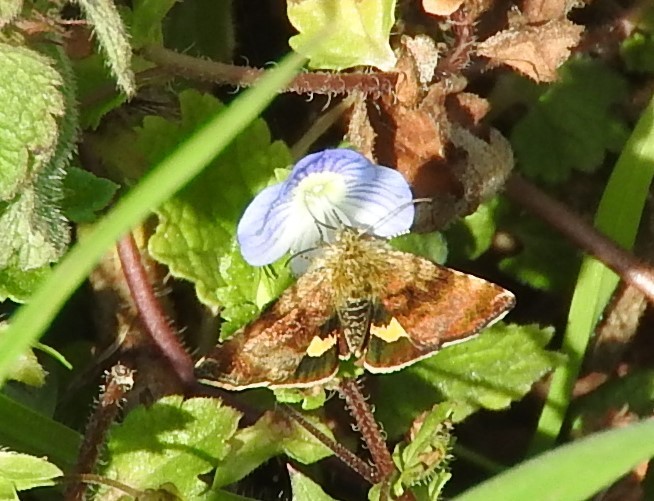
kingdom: Animalia
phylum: Arthropoda
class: Insecta
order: Lepidoptera
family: Noctuidae
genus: Panemeria
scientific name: Panemeria tenebrata
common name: Small yellow underwing
